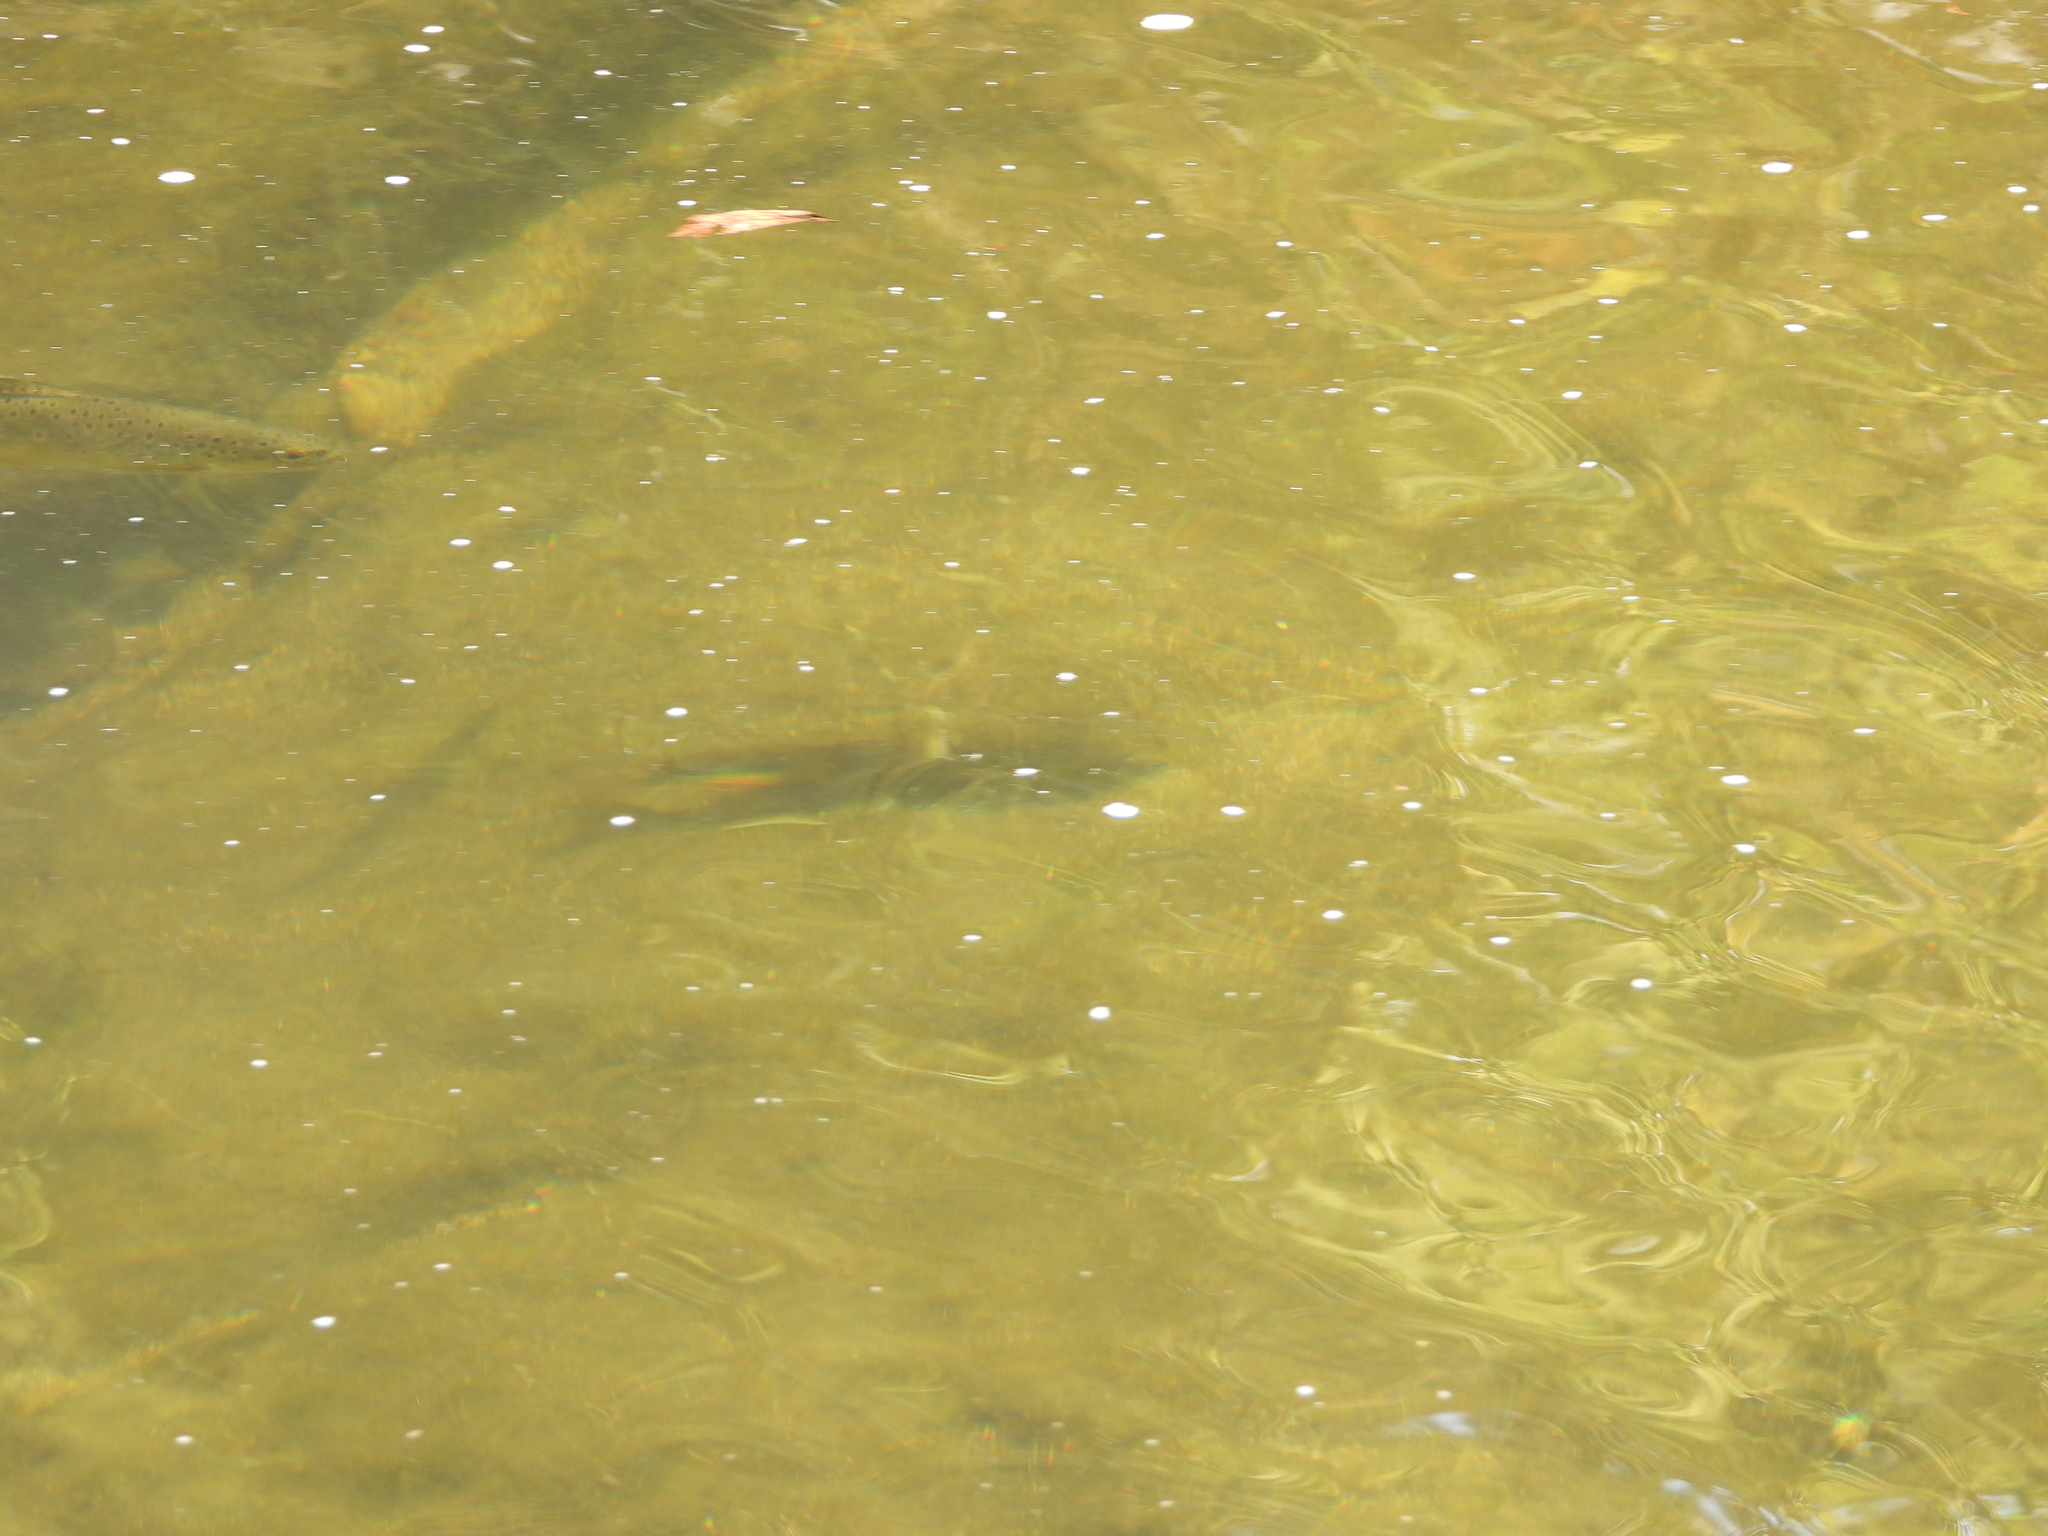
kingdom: Animalia
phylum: Chordata
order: Salmoniformes
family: Salmonidae
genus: Salmo
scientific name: Salmo trutta
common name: Brown trout
